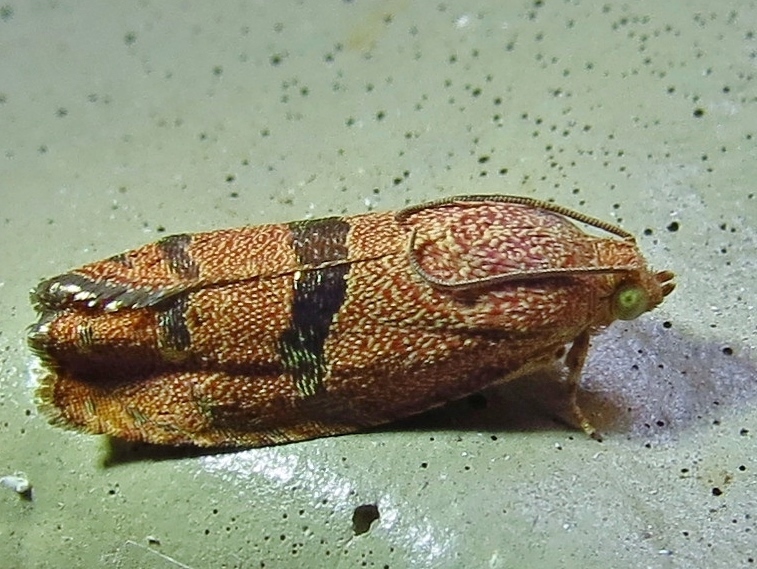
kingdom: Animalia
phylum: Arthropoda
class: Insecta
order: Lepidoptera
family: Tortricidae
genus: Cydia
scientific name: Cydia latiferreana
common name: Filbertworm moth
